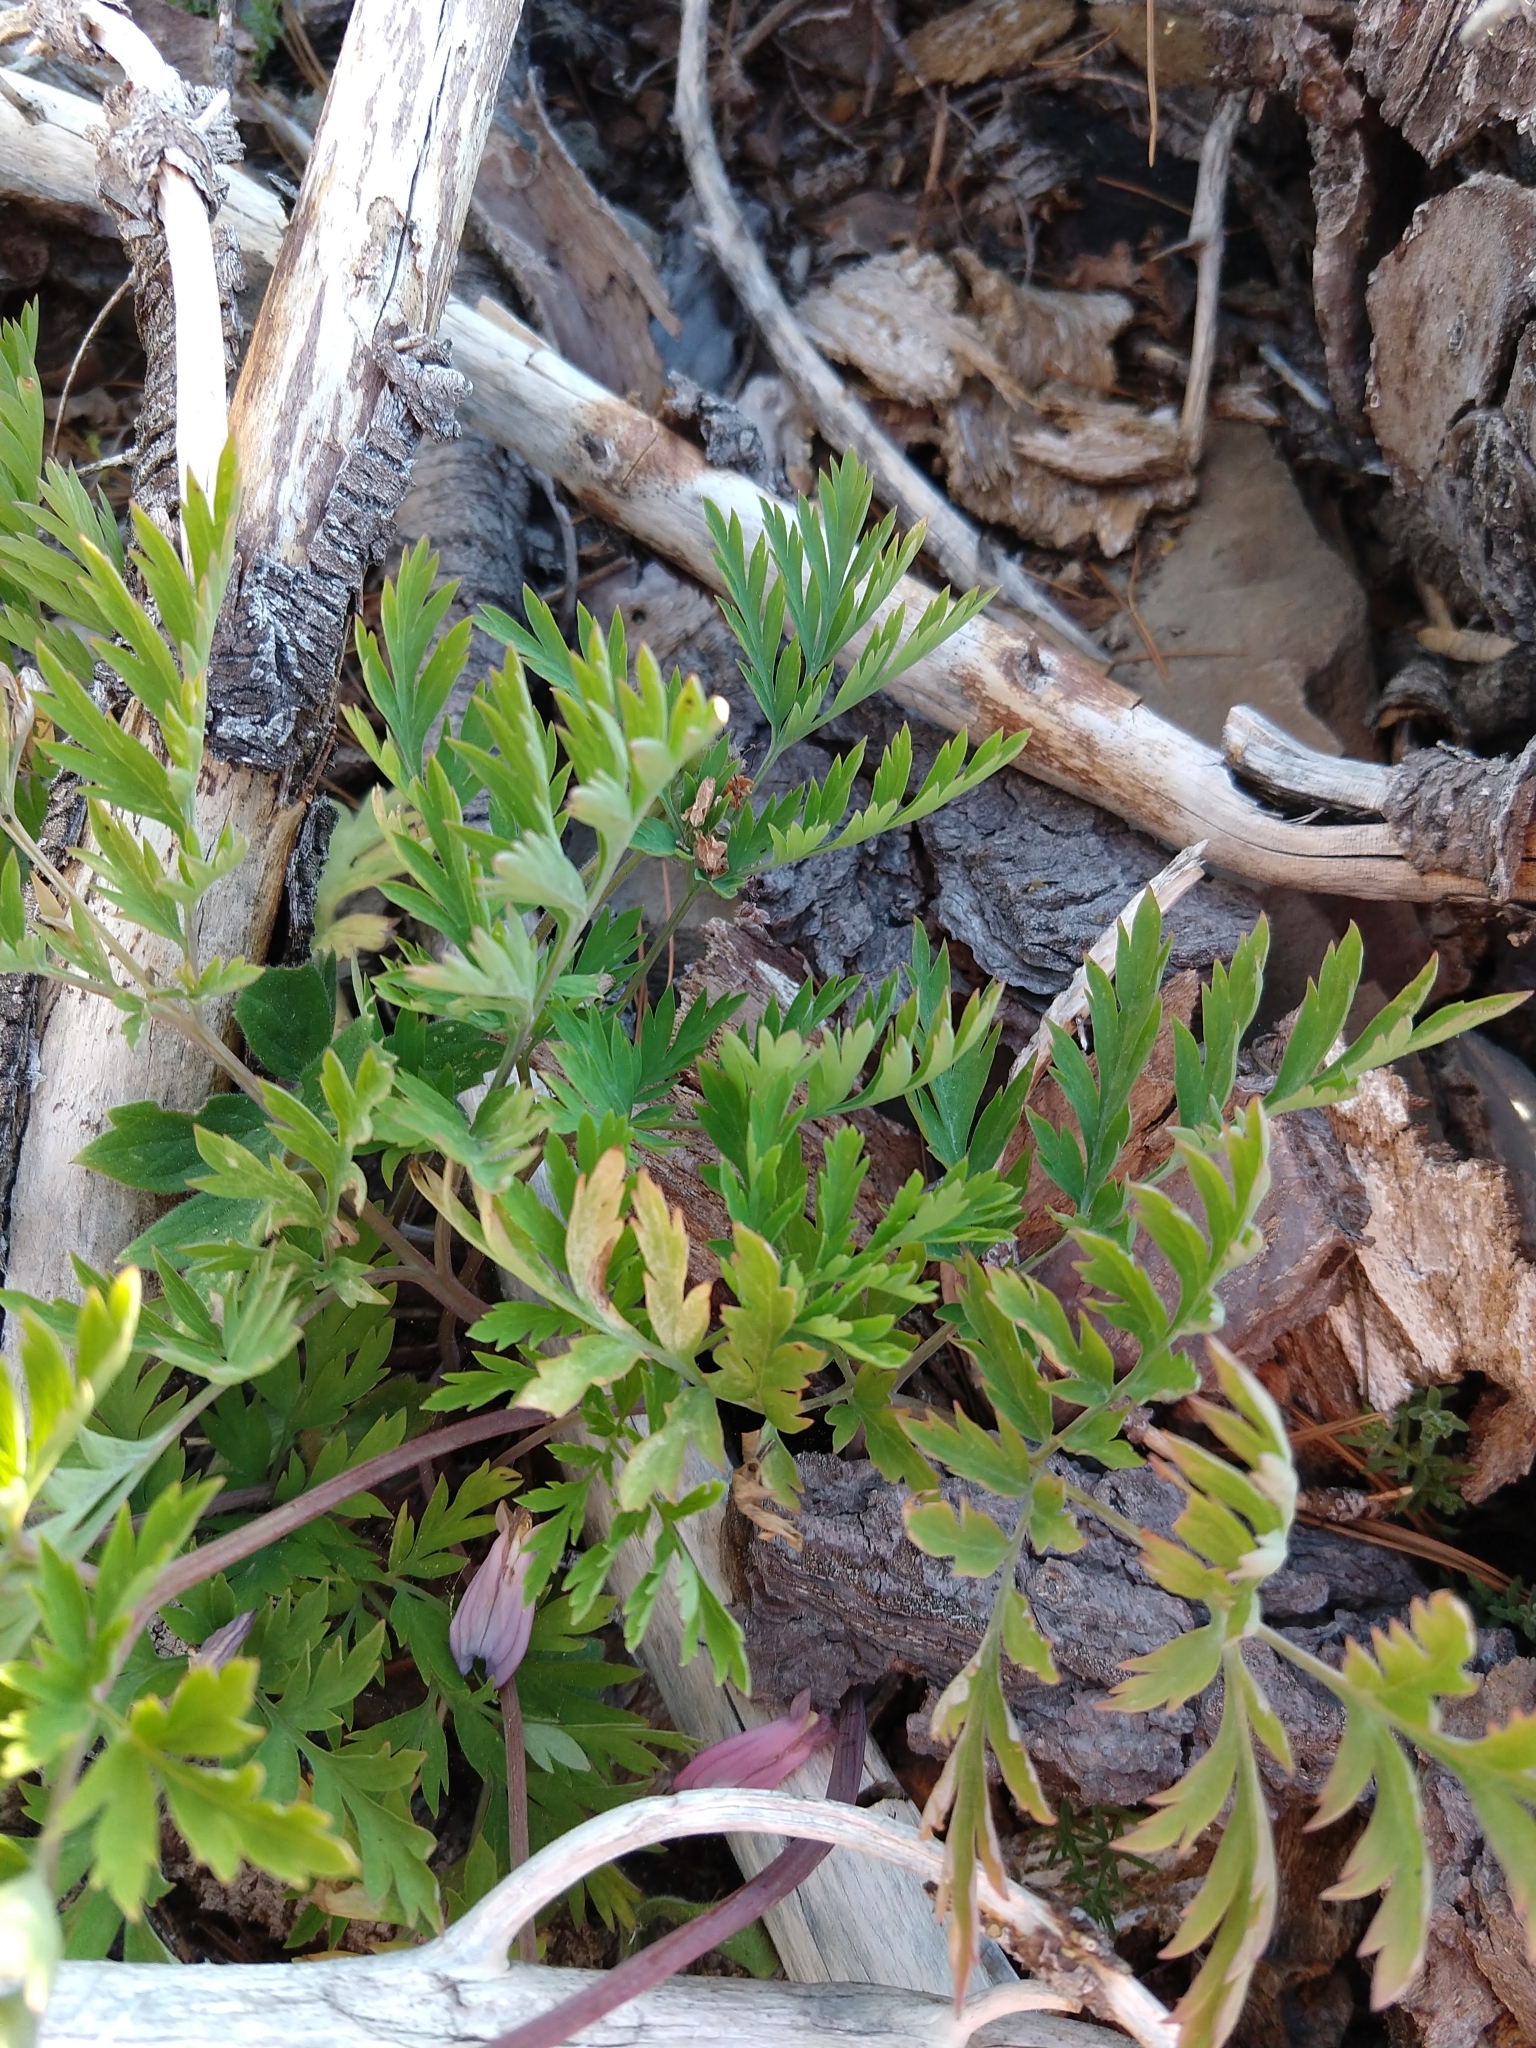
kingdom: Plantae
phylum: Tracheophyta
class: Magnoliopsida
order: Ranunculales
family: Papaveraceae
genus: Dicentra
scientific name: Dicentra formosa
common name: Bleeding-heart
